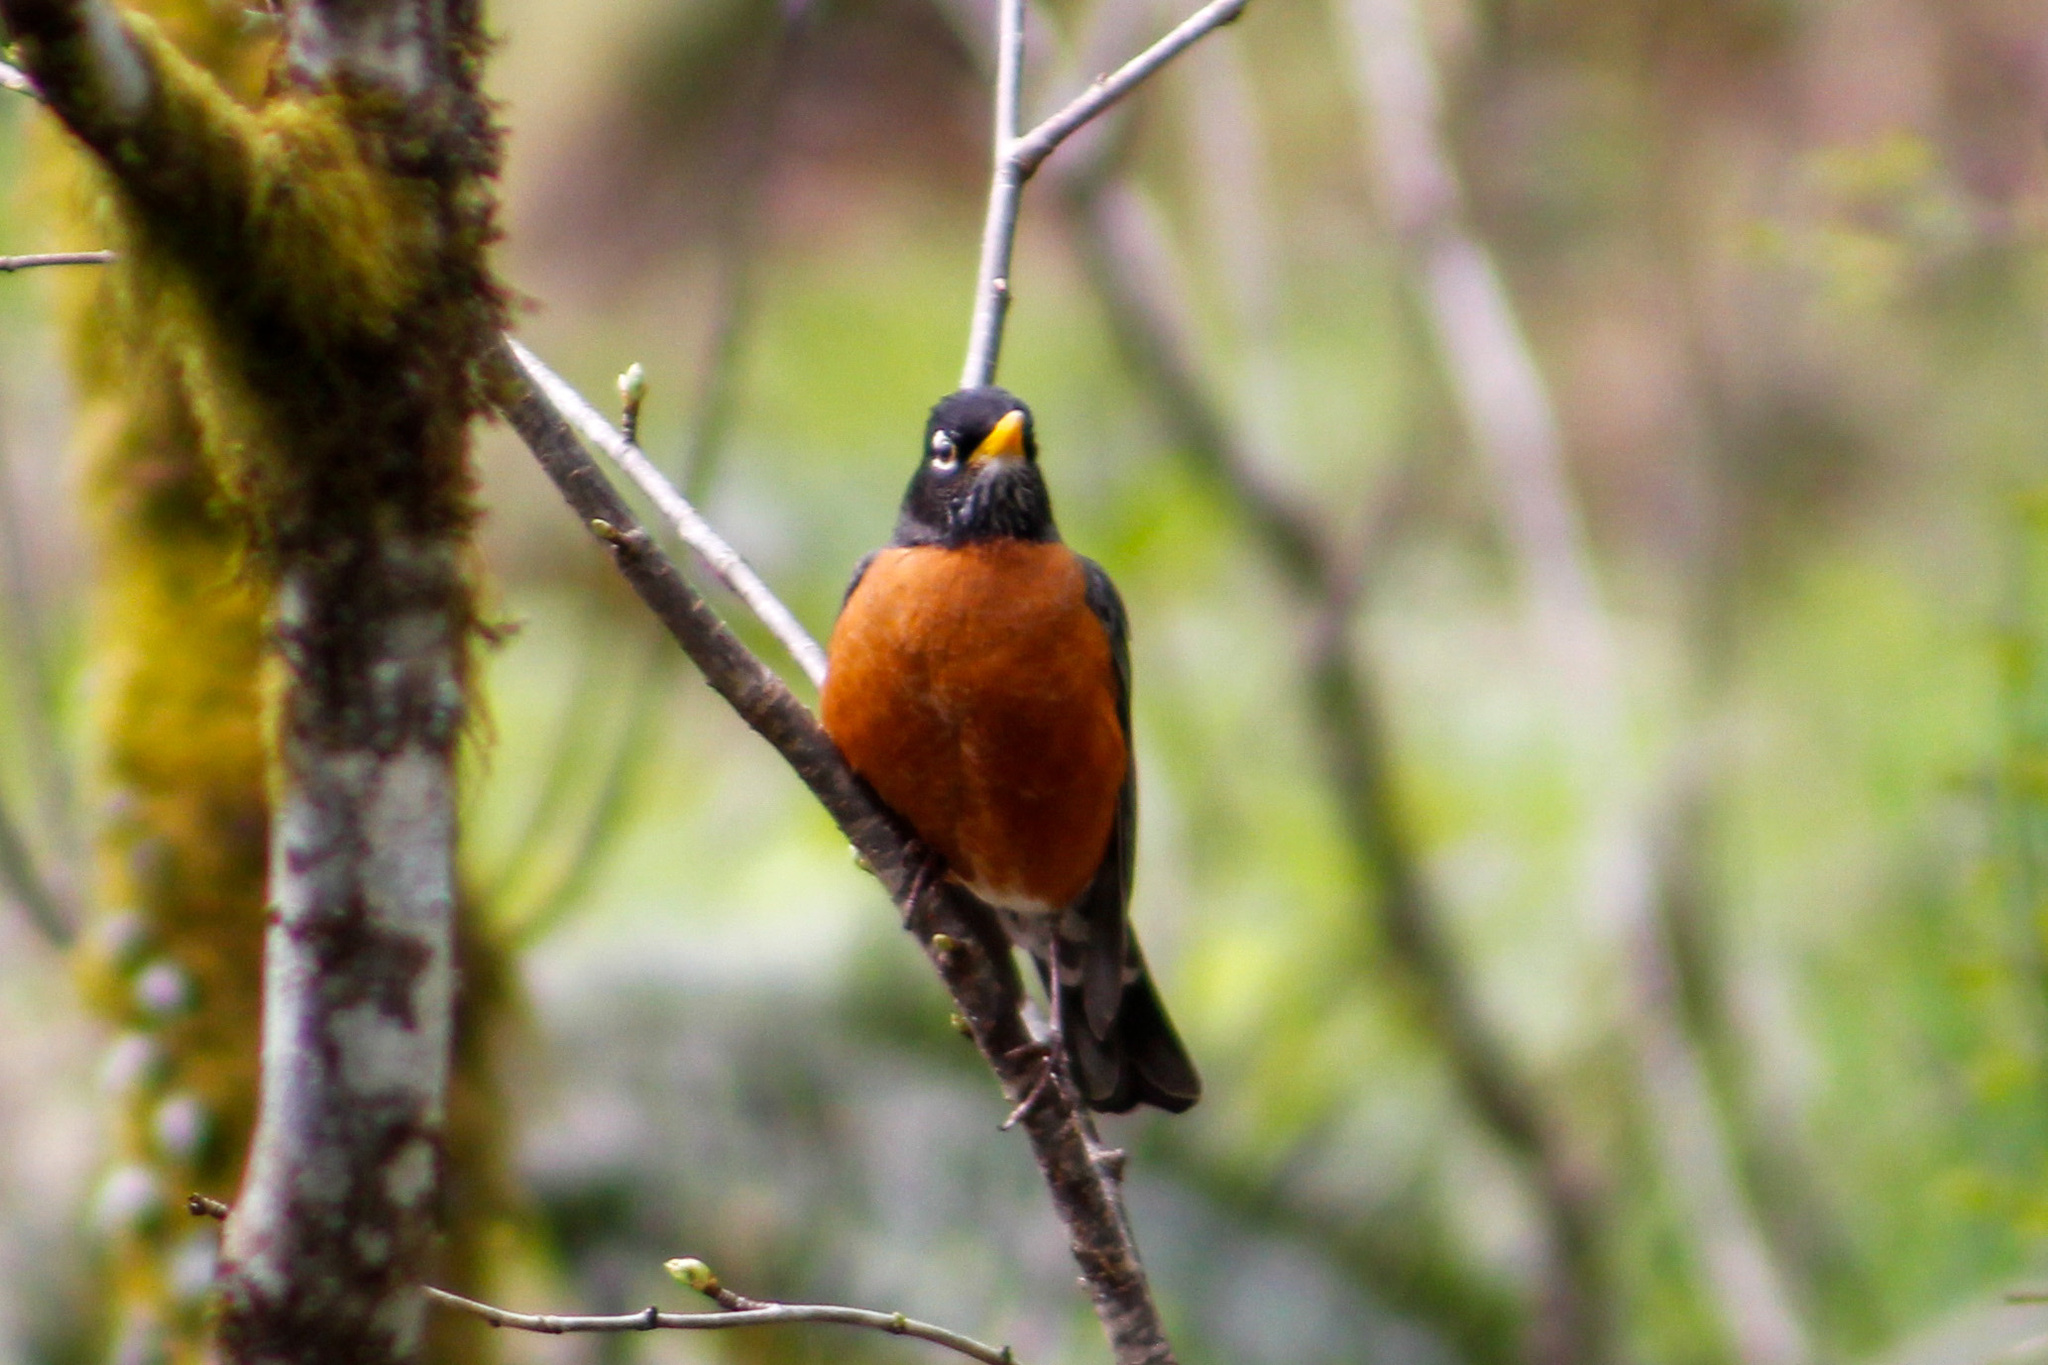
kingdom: Animalia
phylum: Chordata
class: Aves
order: Passeriformes
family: Turdidae
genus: Turdus
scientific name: Turdus migratorius
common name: American robin
